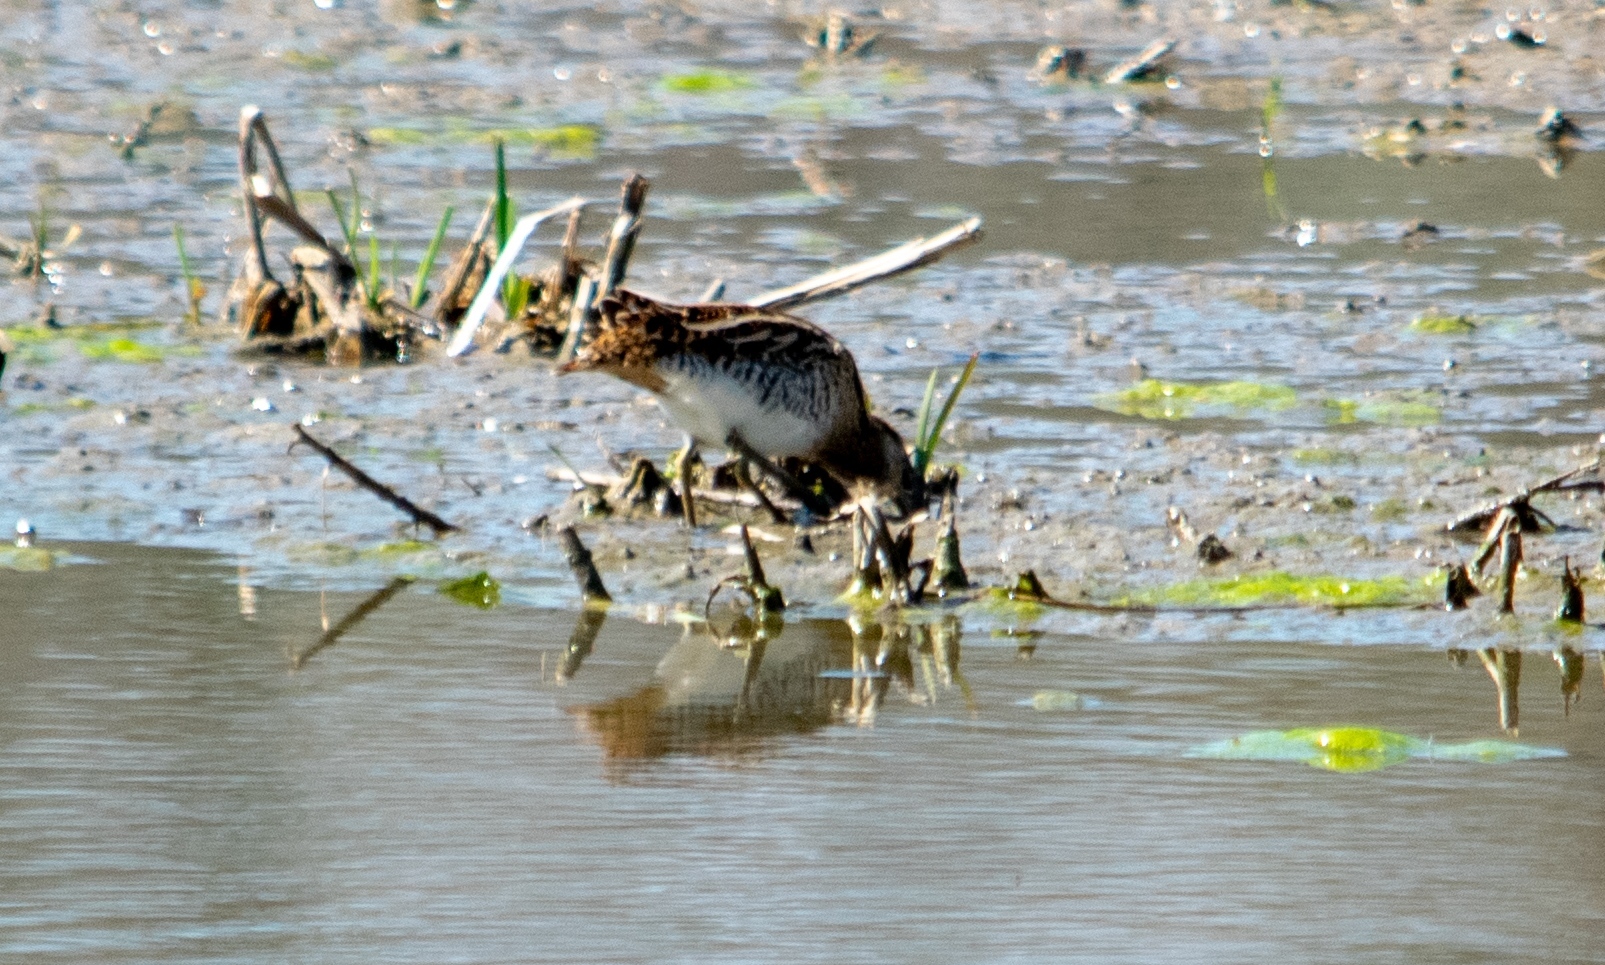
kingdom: Animalia
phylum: Chordata
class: Aves
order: Charadriiformes
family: Scolopacidae
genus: Gallinago
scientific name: Gallinago gallinago
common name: Common snipe
